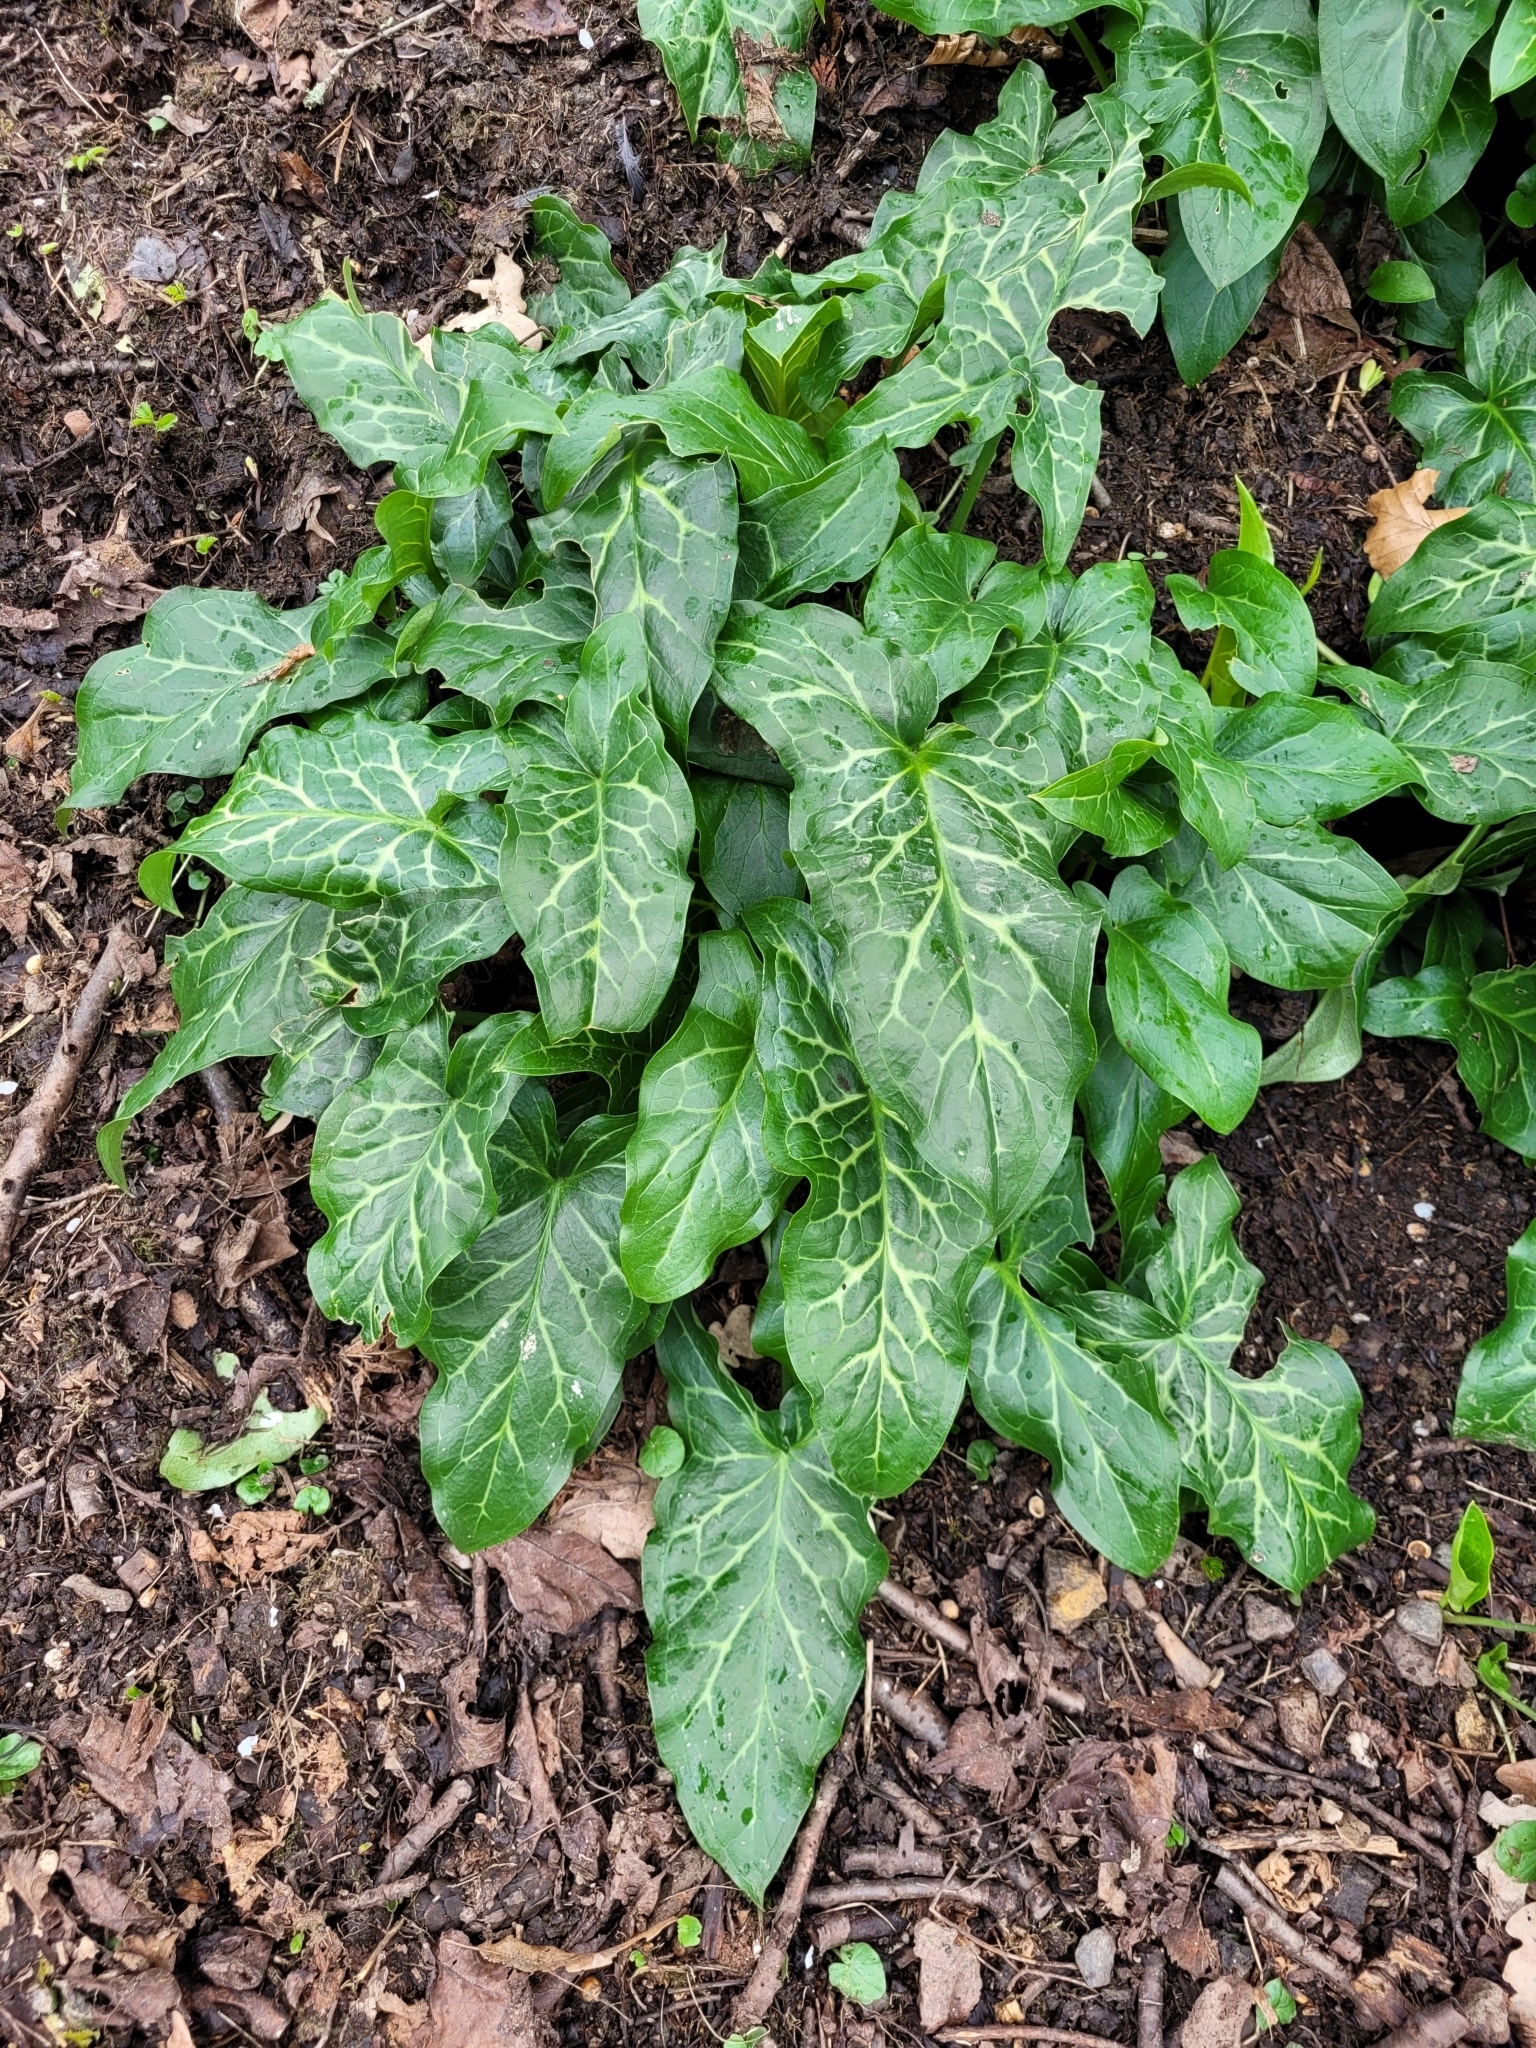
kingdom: Plantae
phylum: Tracheophyta
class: Liliopsida
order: Alismatales
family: Araceae
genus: Arum
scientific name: Arum italicum
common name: Italian lords-and-ladies
